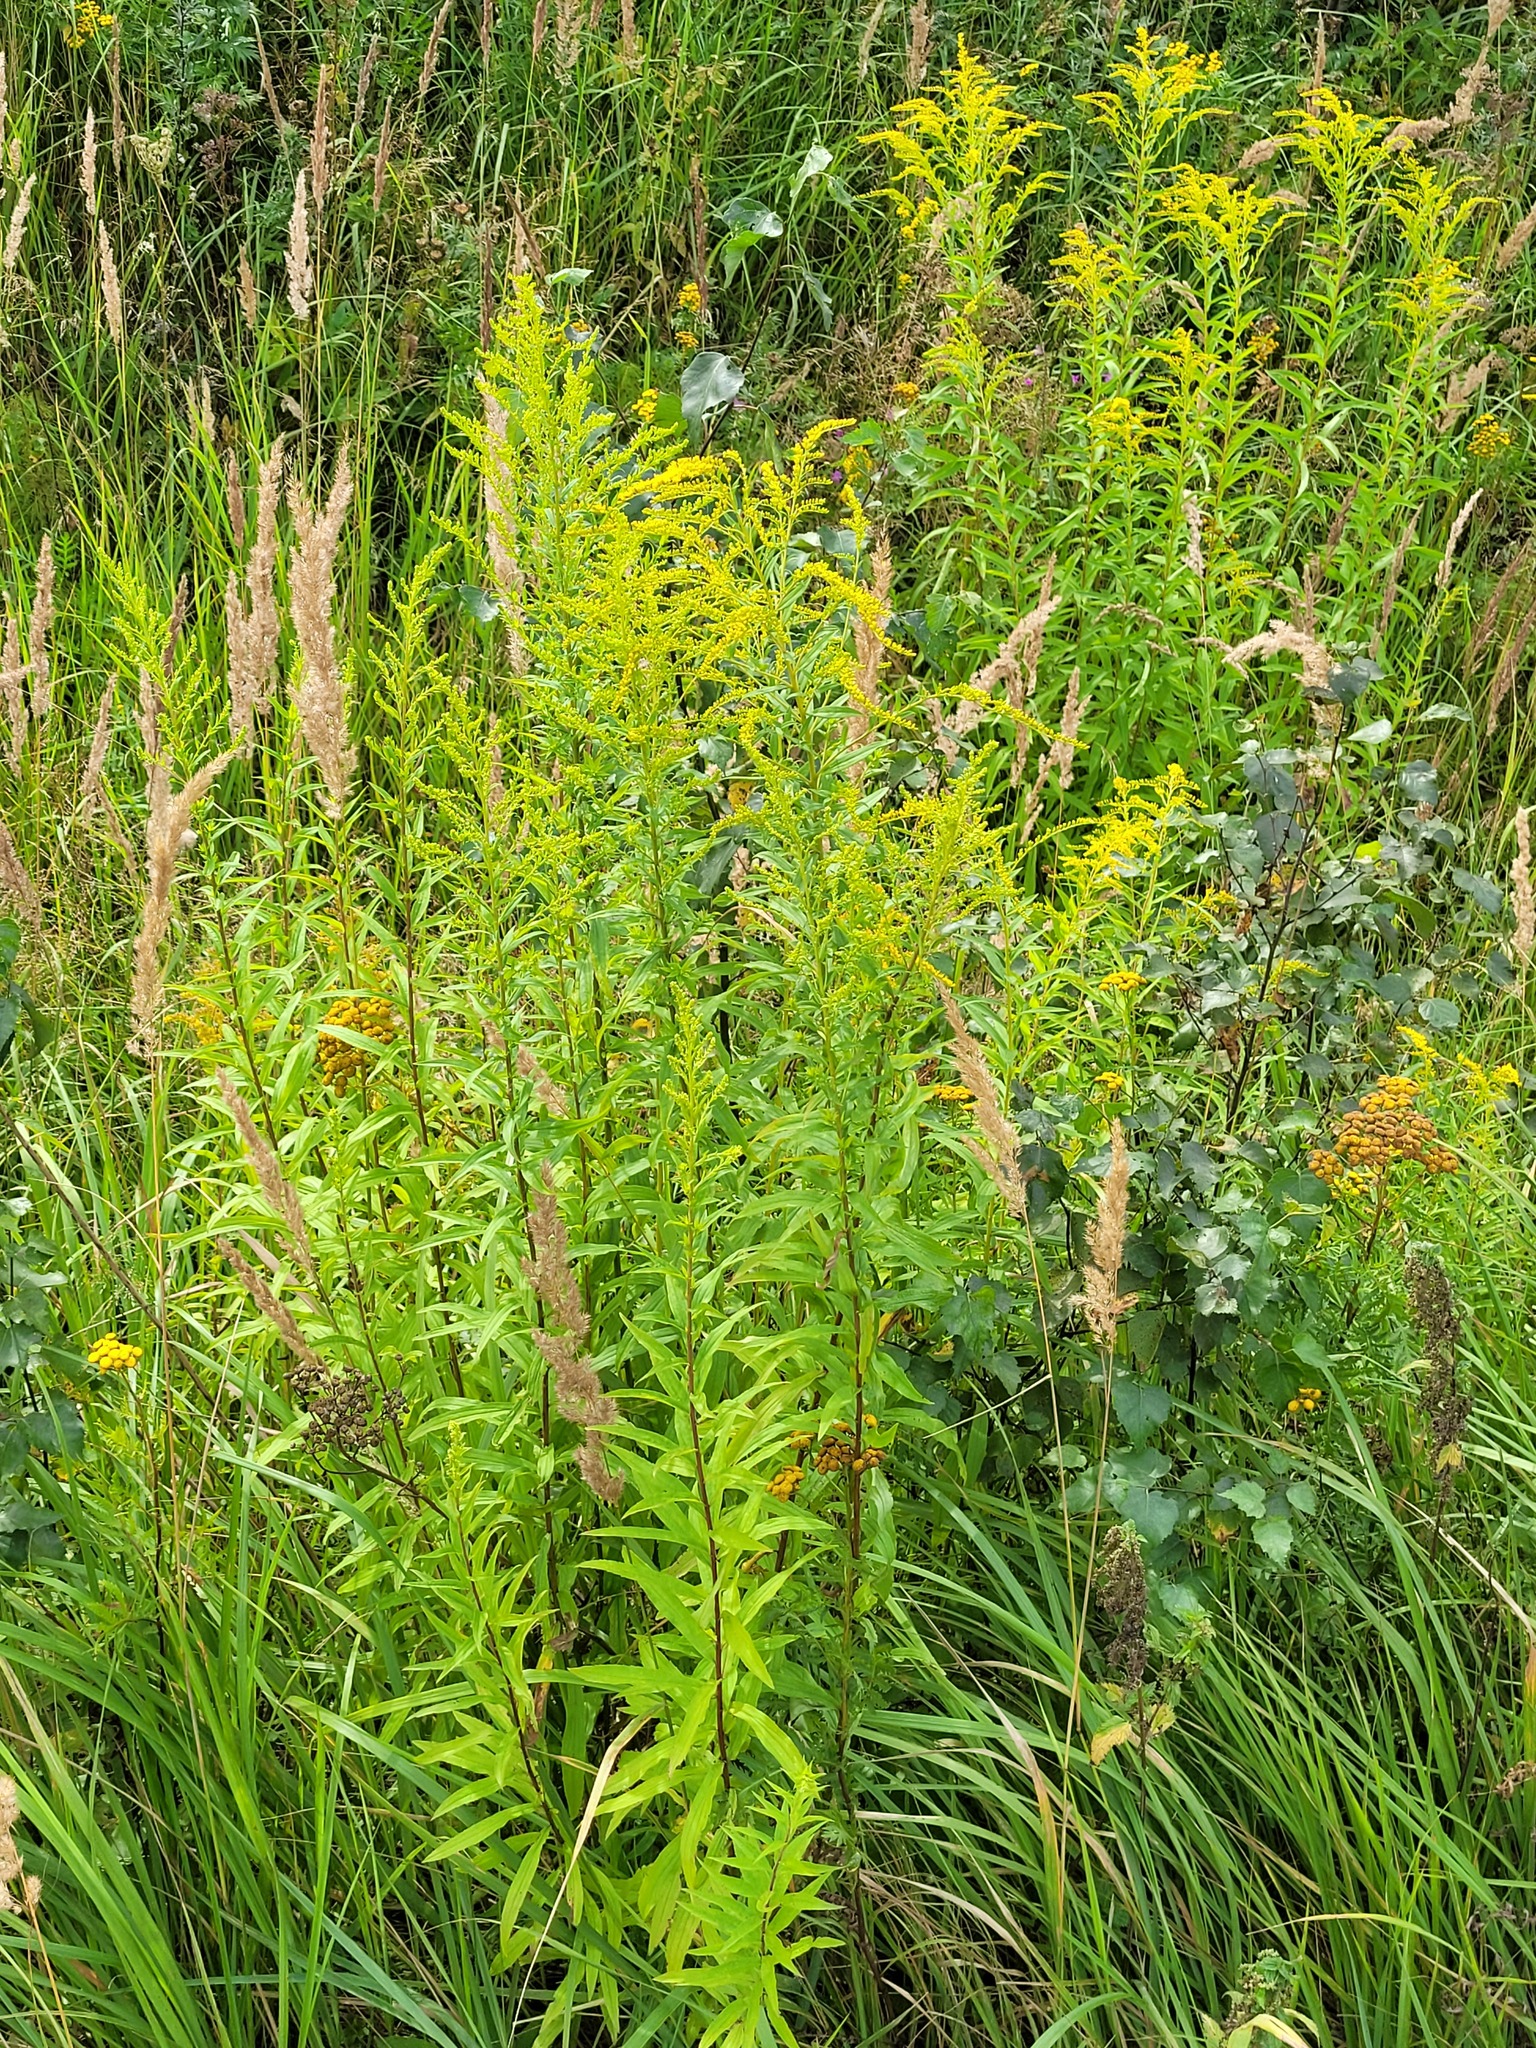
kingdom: Plantae
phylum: Tracheophyta
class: Magnoliopsida
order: Asterales
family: Asteraceae
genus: Solidago
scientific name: Solidago canadensis
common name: Canada goldenrod
